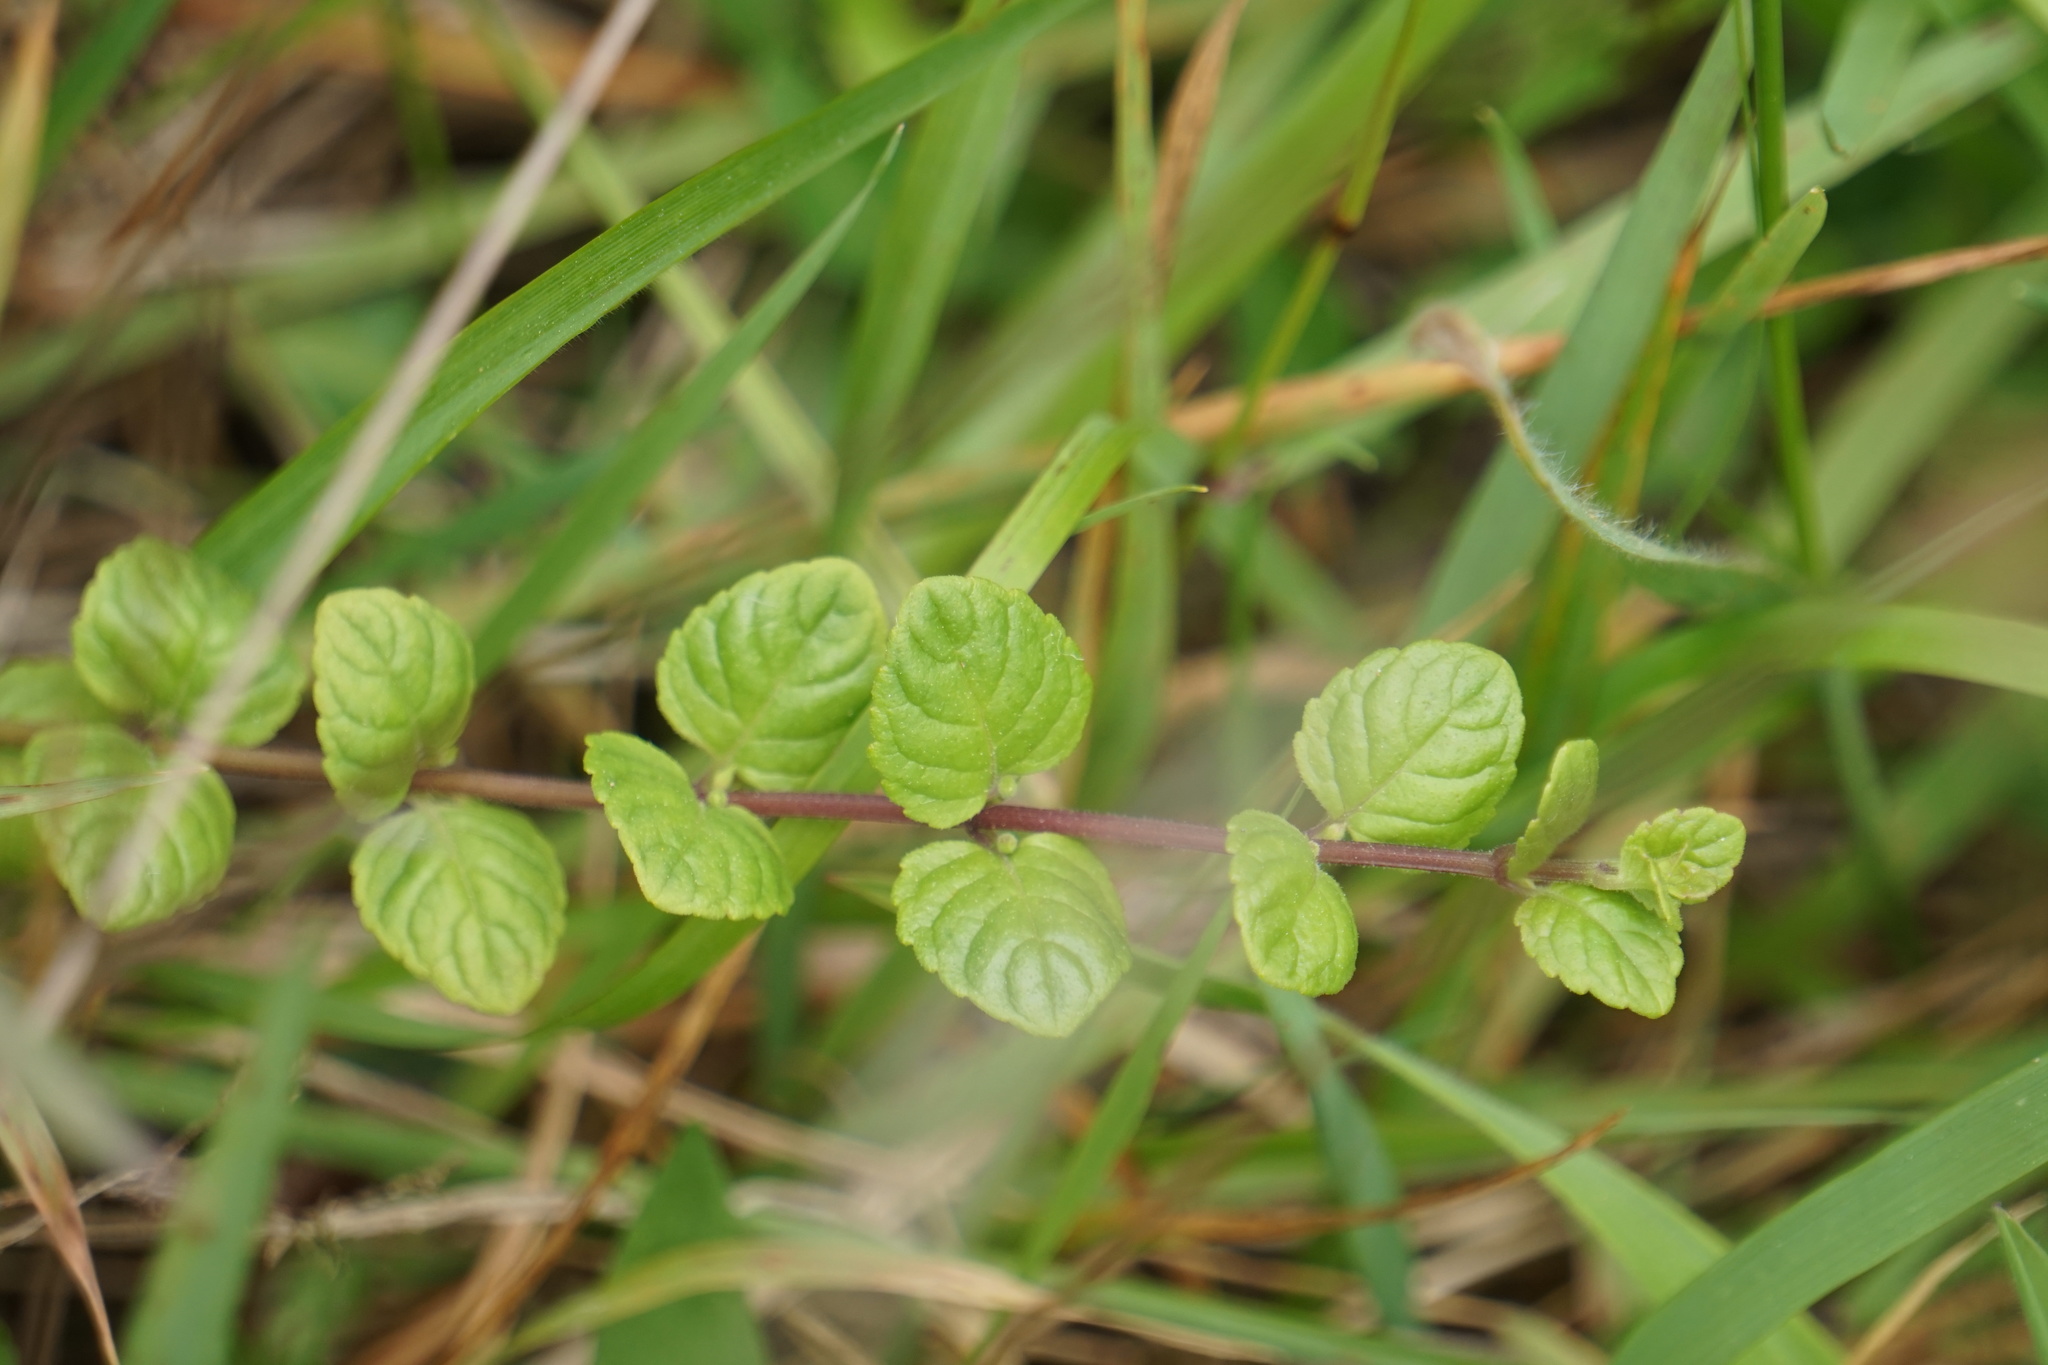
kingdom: Plantae
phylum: Tracheophyta
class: Magnoliopsida
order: Lamiales
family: Lamiaceae
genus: Micromeria
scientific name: Micromeria douglasii
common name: Yerba buena
